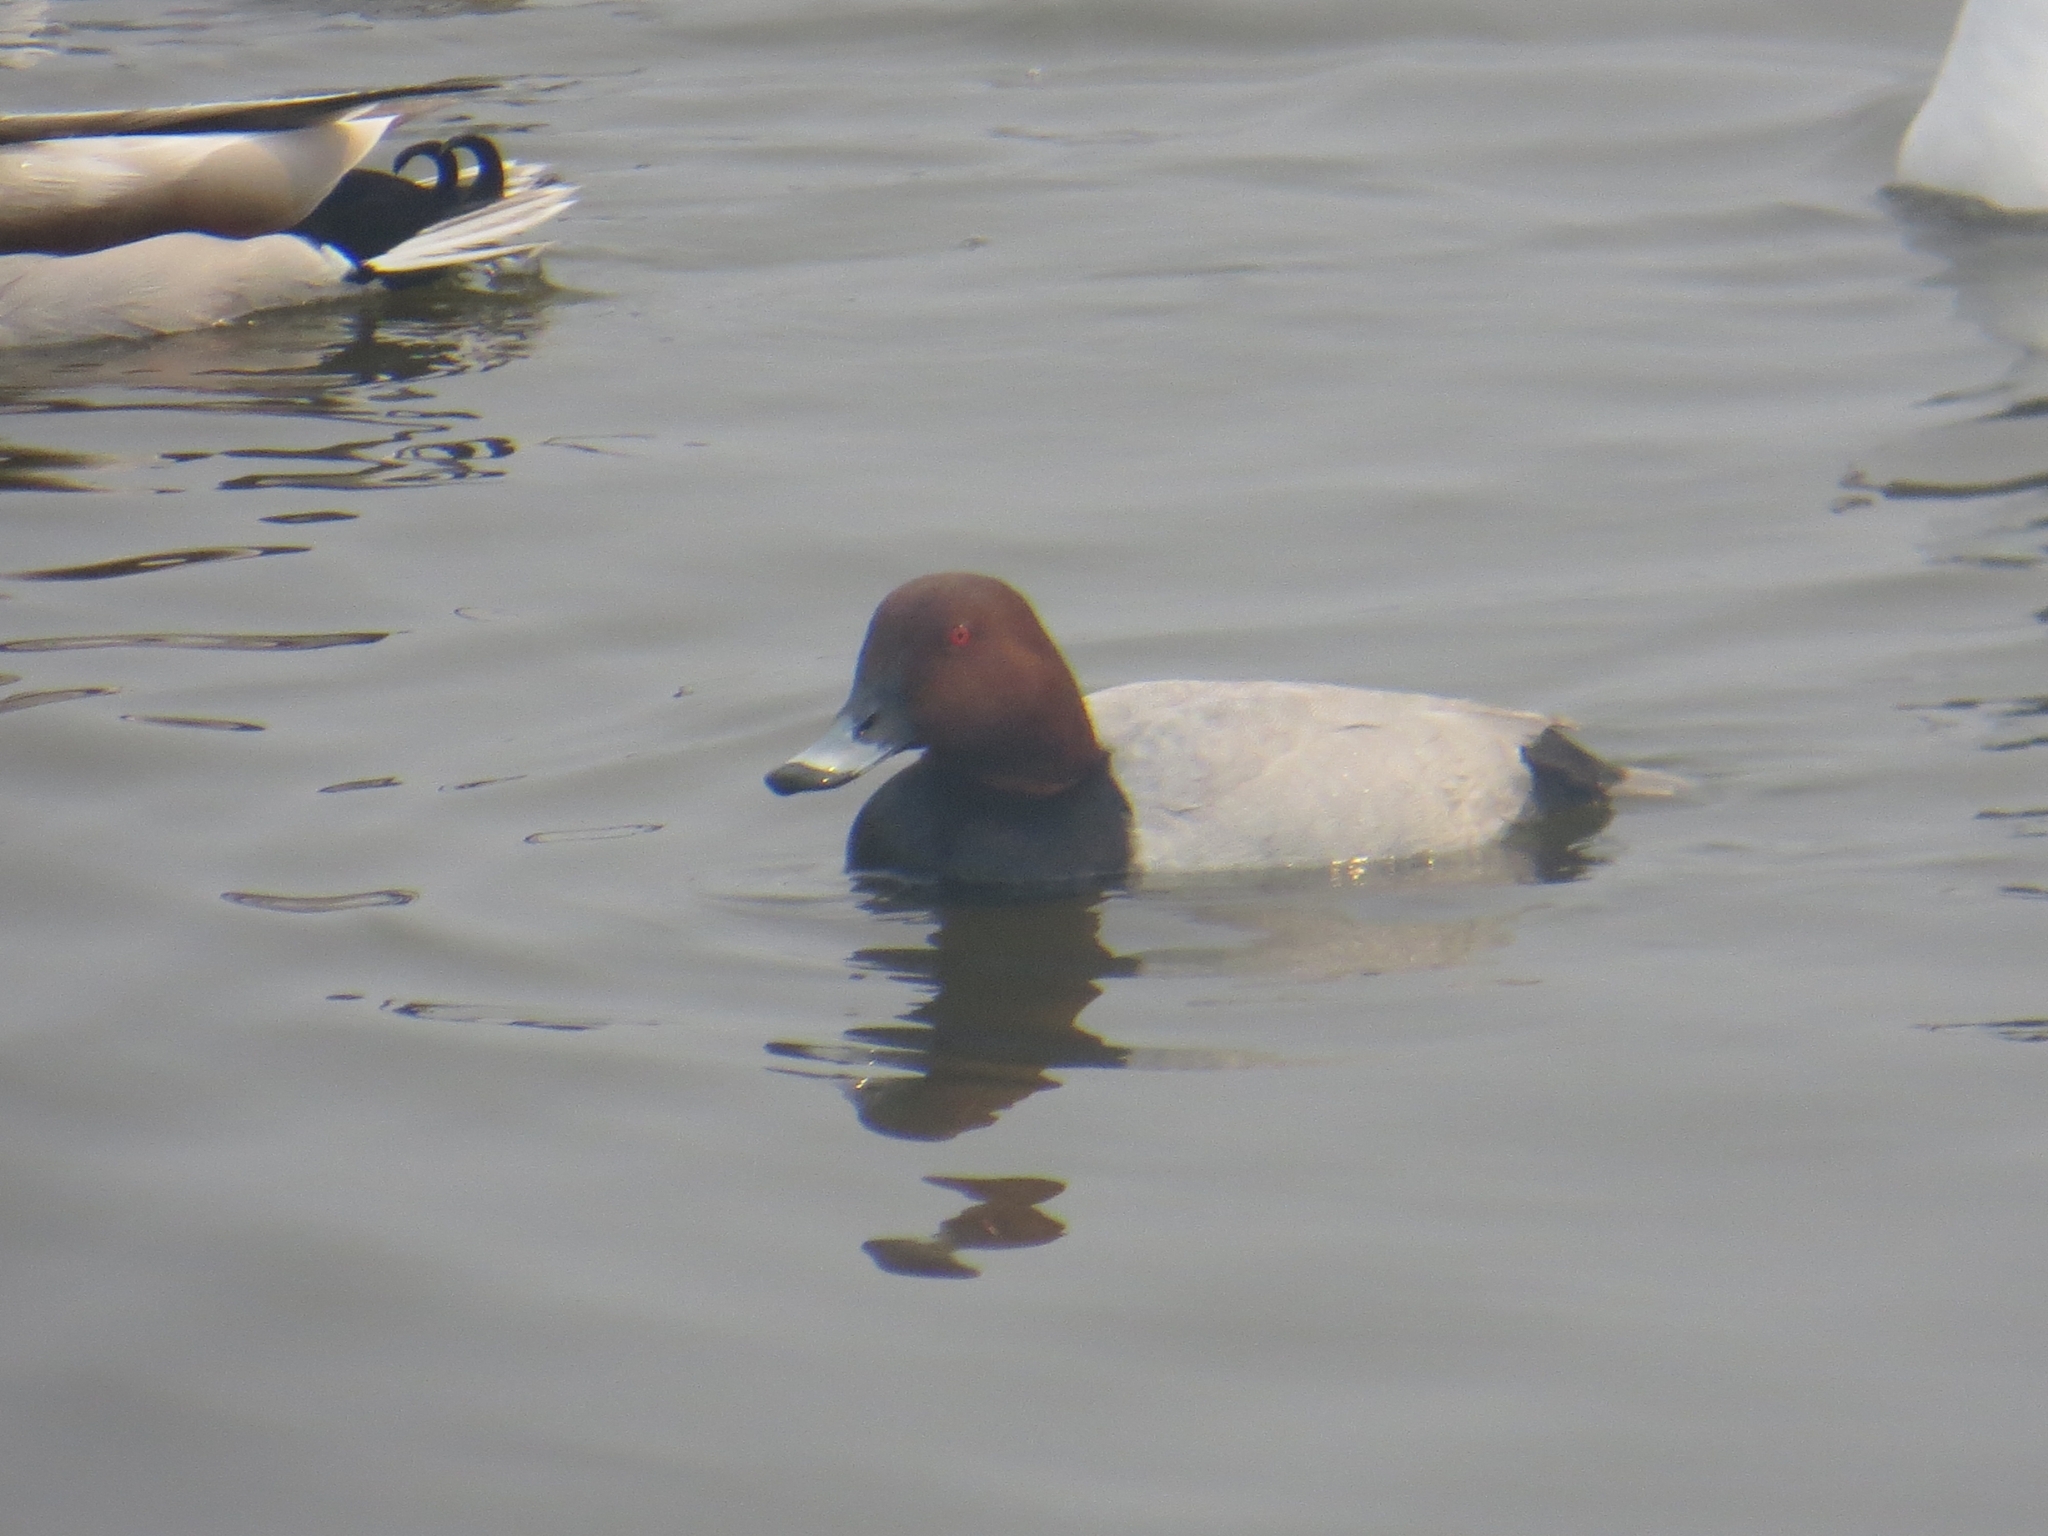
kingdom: Animalia
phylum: Chordata
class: Aves
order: Anseriformes
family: Anatidae
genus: Aythya
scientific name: Aythya ferina
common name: Common pochard
